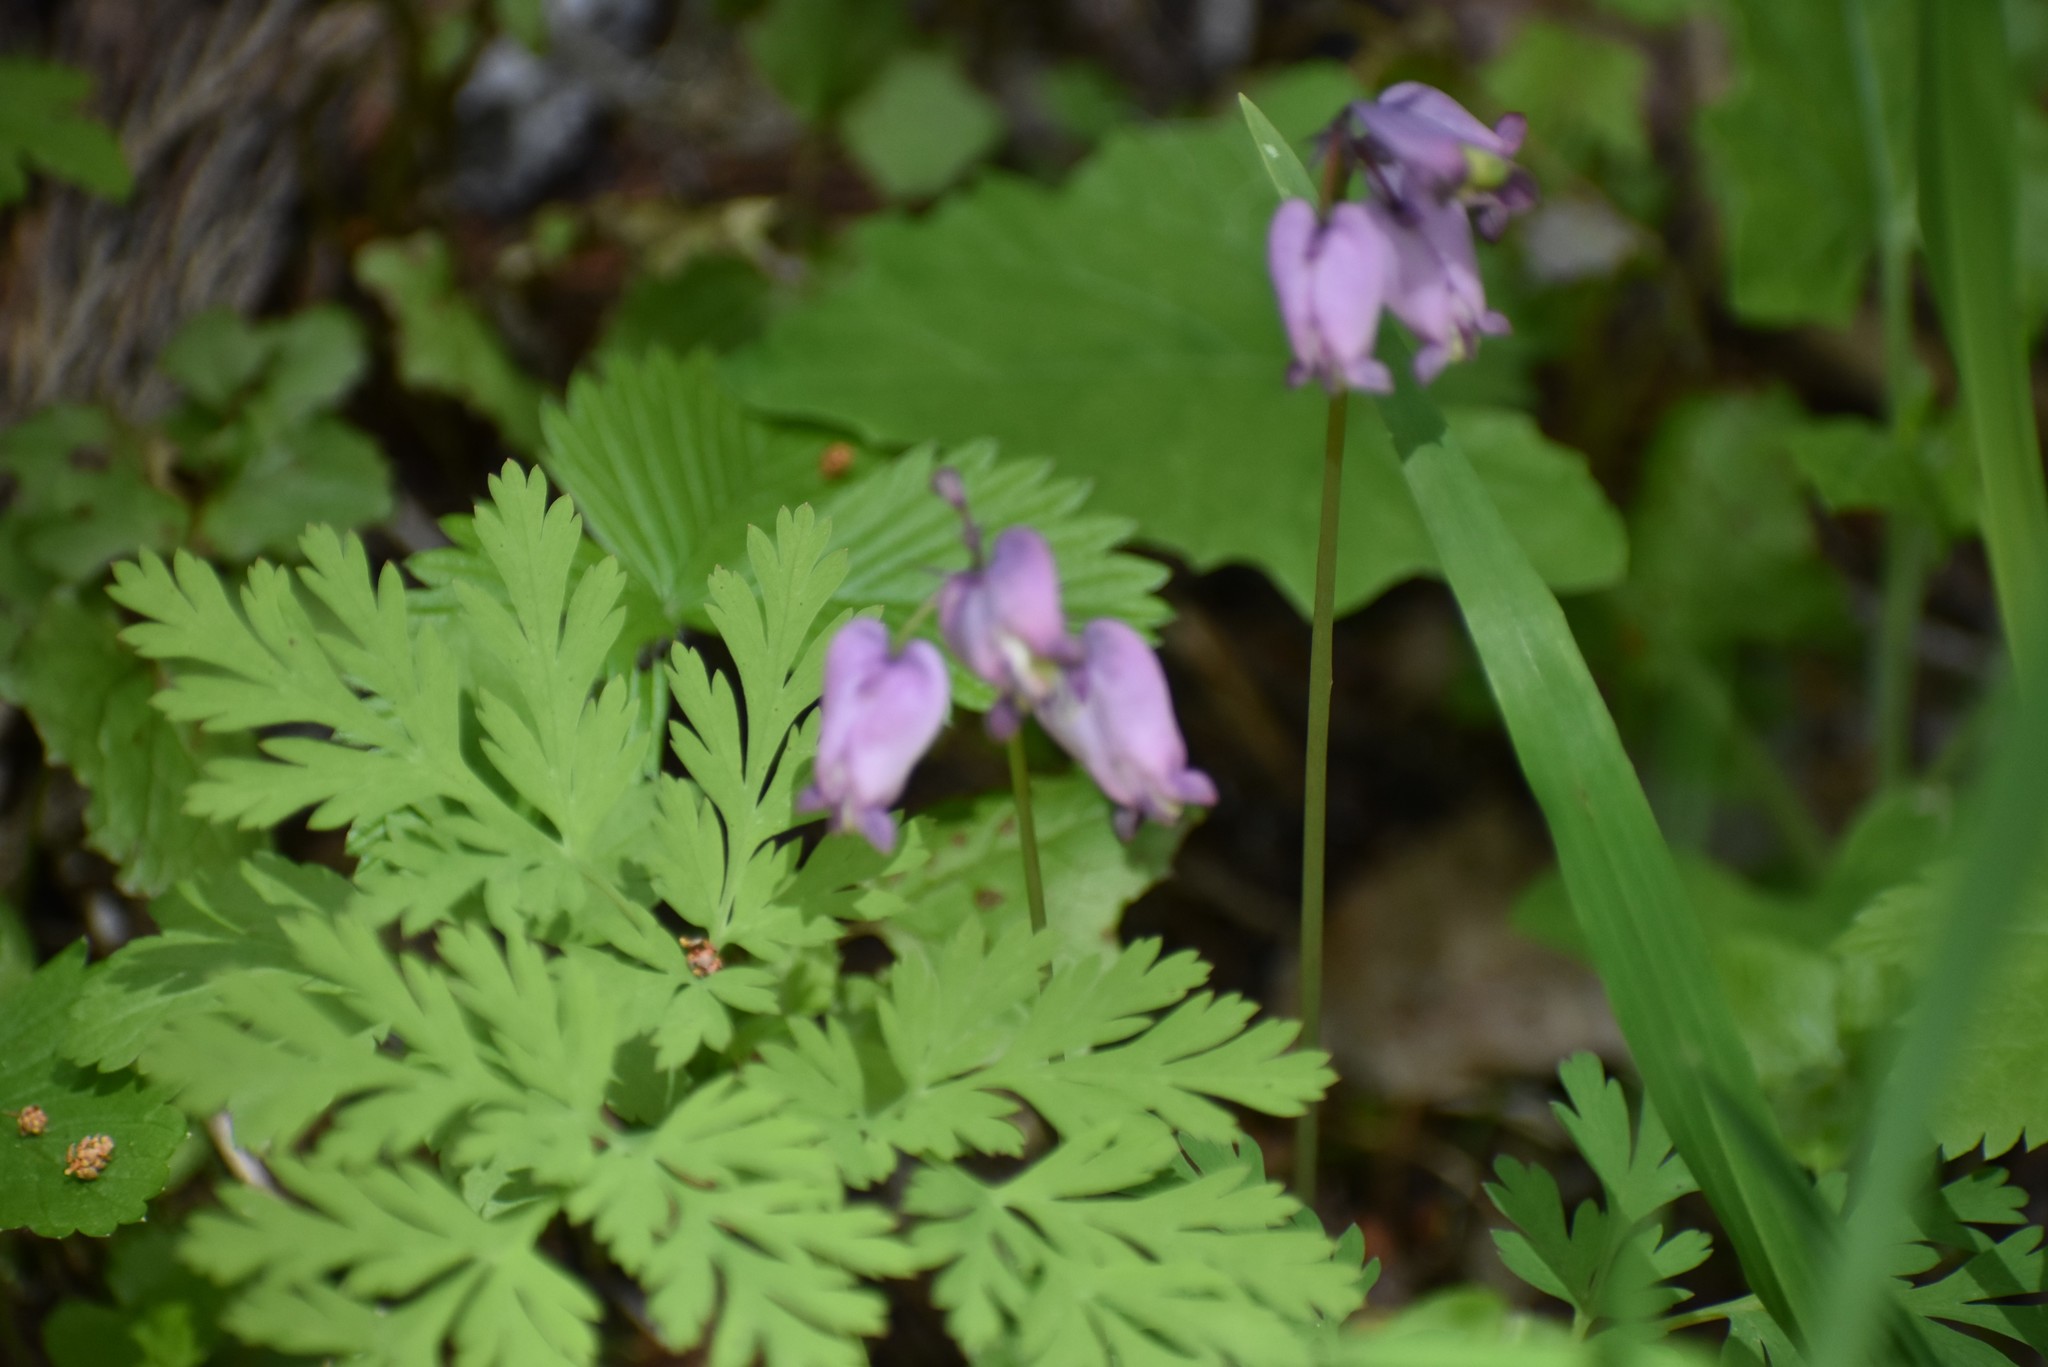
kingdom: Plantae
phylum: Tracheophyta
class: Magnoliopsida
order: Ranunculales
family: Papaveraceae
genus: Dicentra
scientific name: Dicentra formosa
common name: Bleeding-heart
